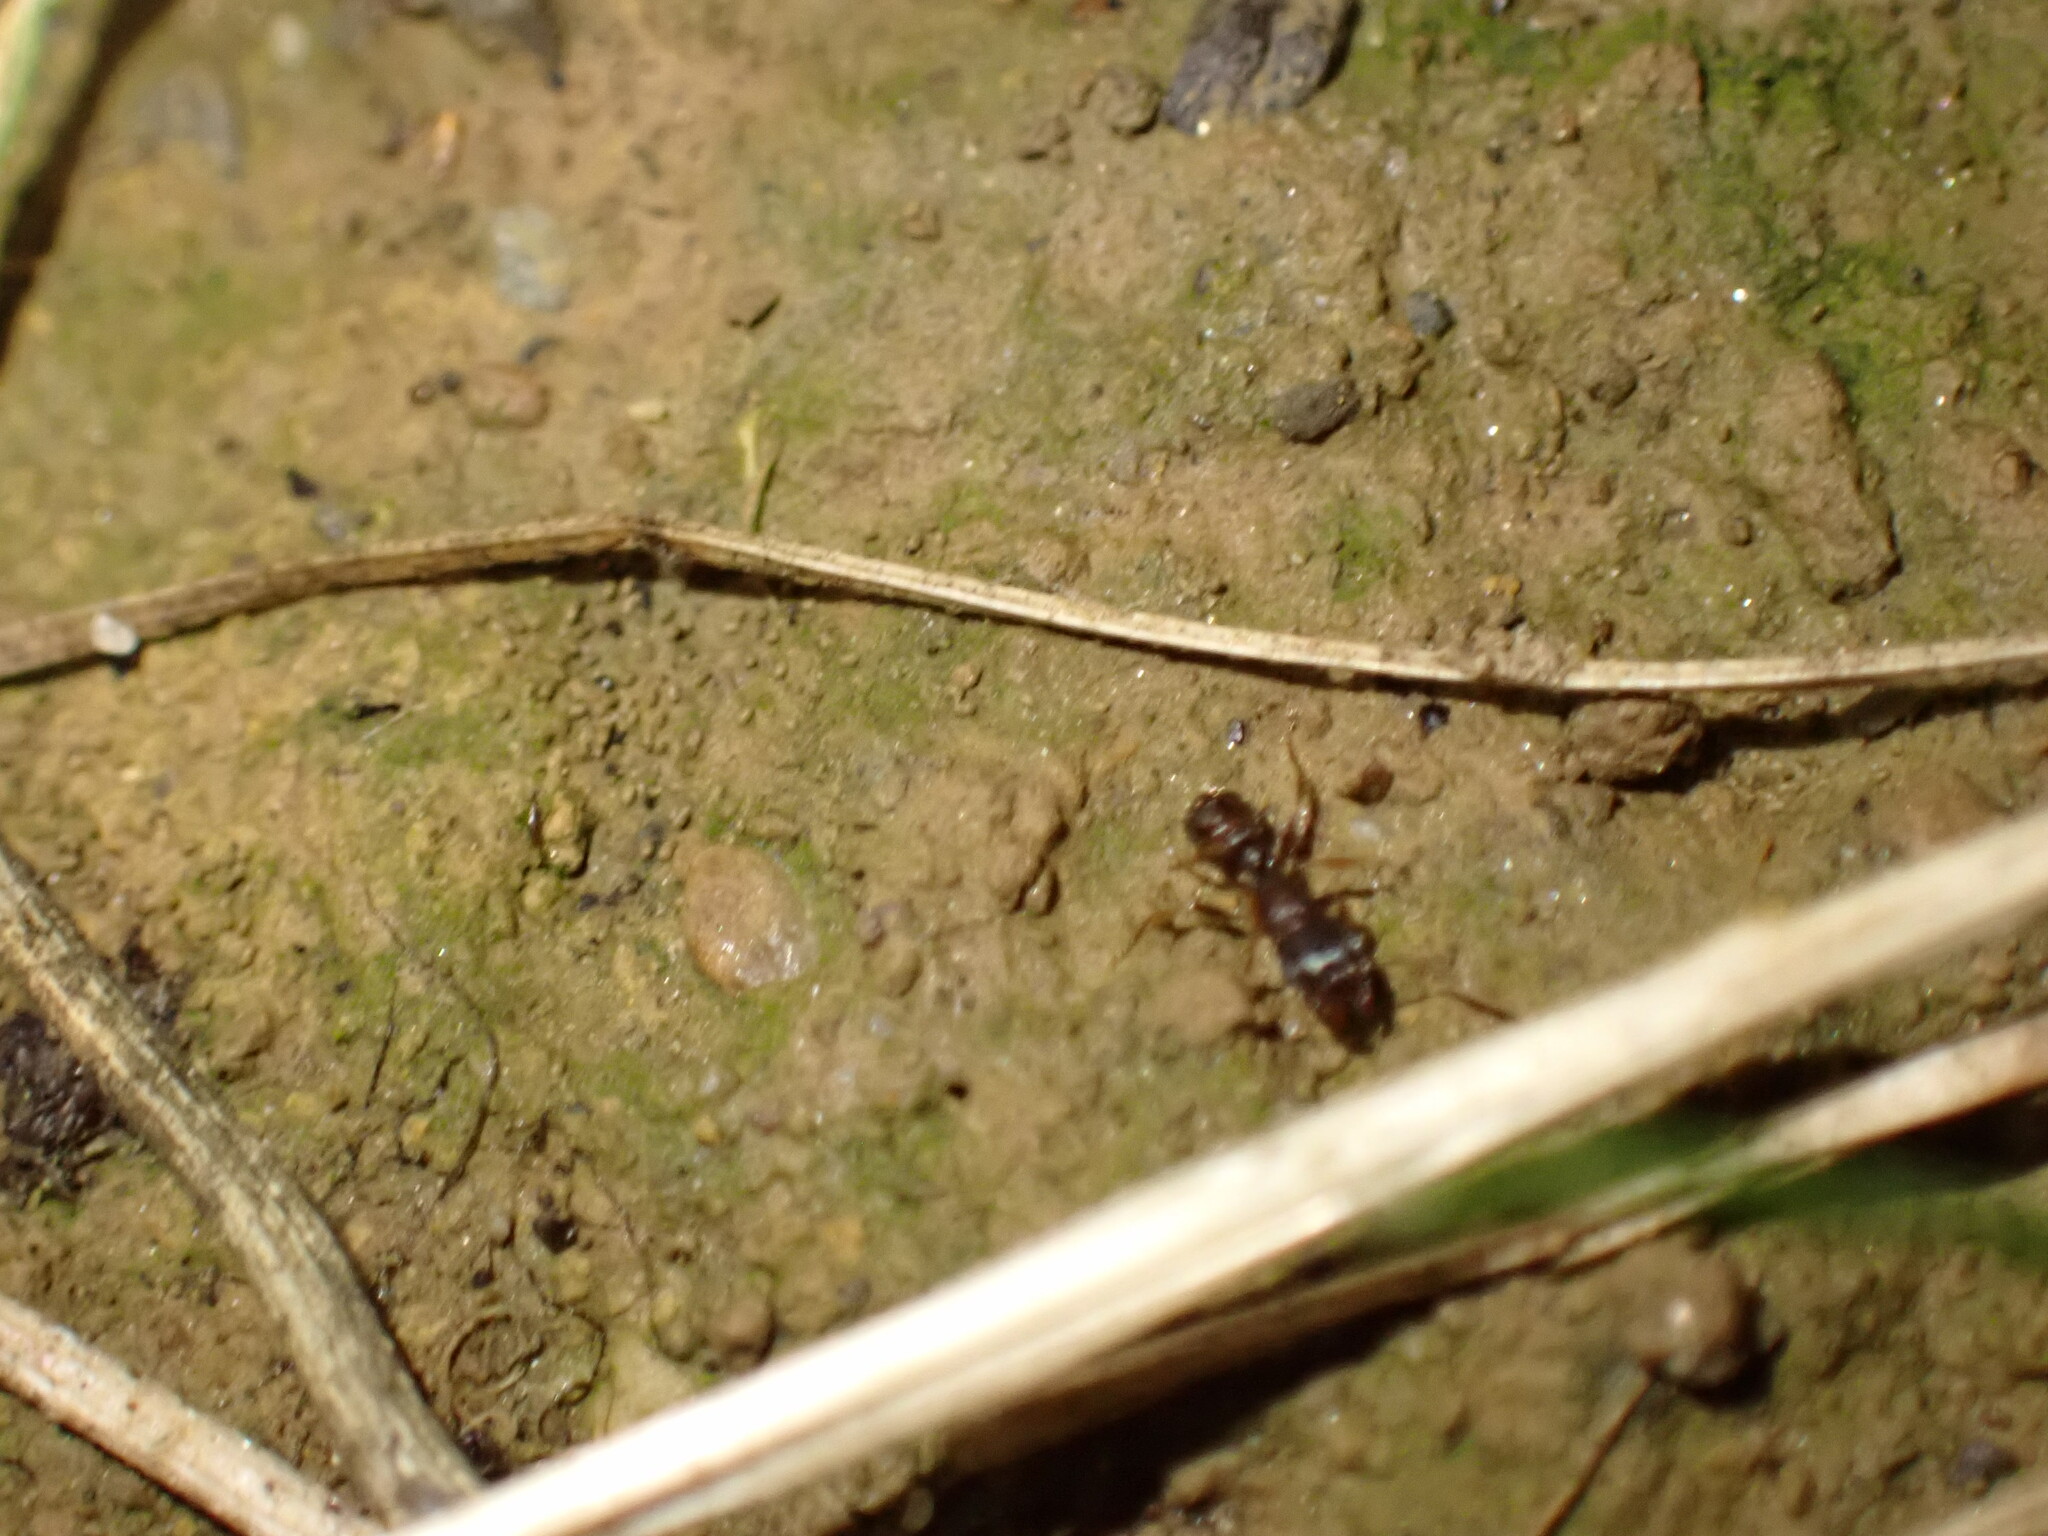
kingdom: Animalia
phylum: Arthropoda
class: Insecta
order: Hymenoptera
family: Formicidae
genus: Tetramorium
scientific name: Tetramorium immigrans
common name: Pavement ant
